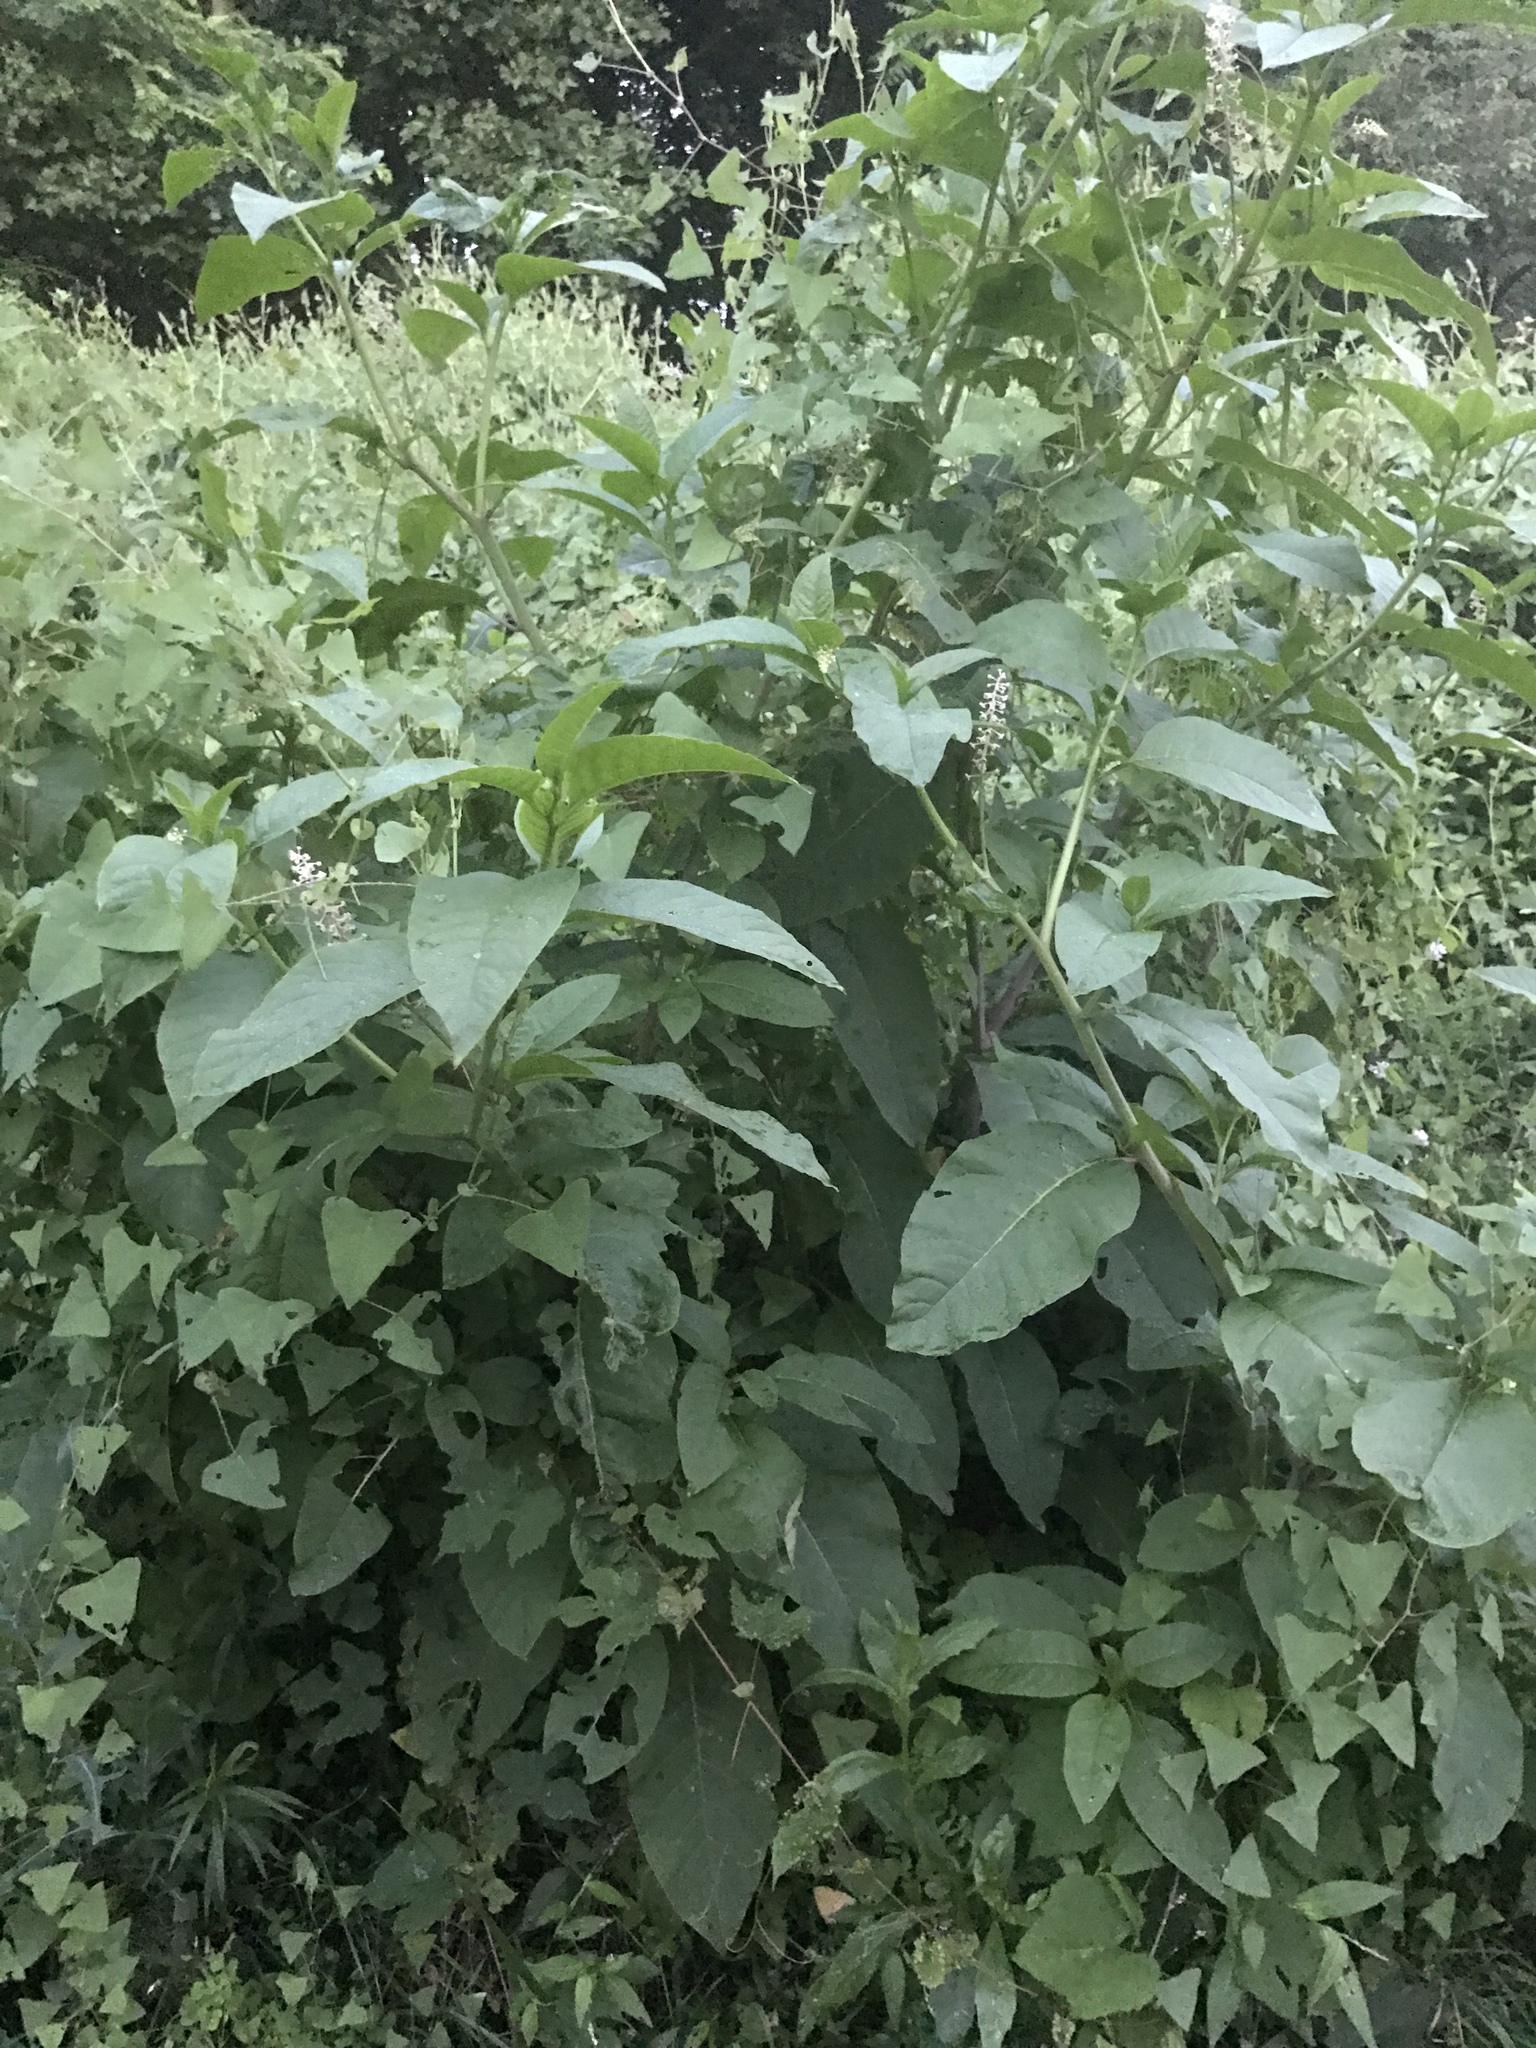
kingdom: Plantae
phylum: Tracheophyta
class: Magnoliopsida
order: Caryophyllales
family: Phytolaccaceae
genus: Phytolacca
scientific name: Phytolacca americana
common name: American pokeweed
